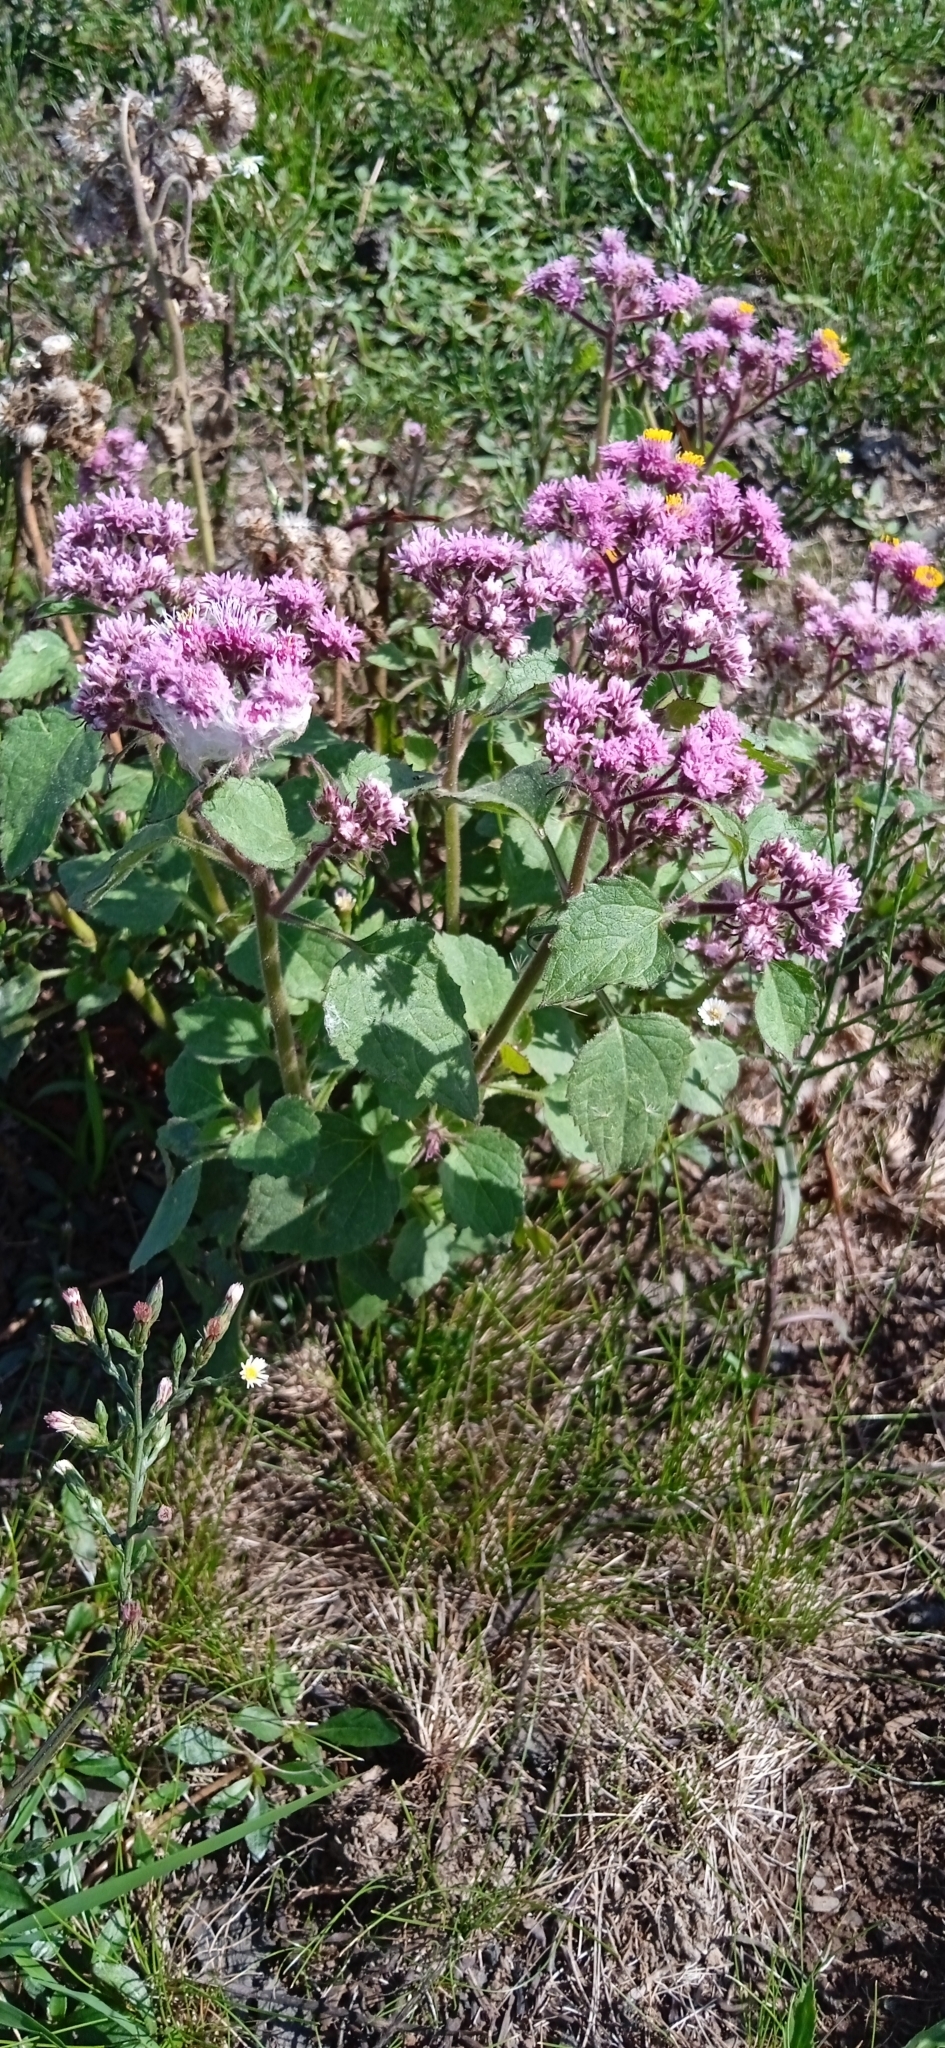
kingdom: Plantae
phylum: Tracheophyta
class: Magnoliopsida
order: Asterales
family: Asteraceae
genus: Urolepis
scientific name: Urolepis hecatantha
